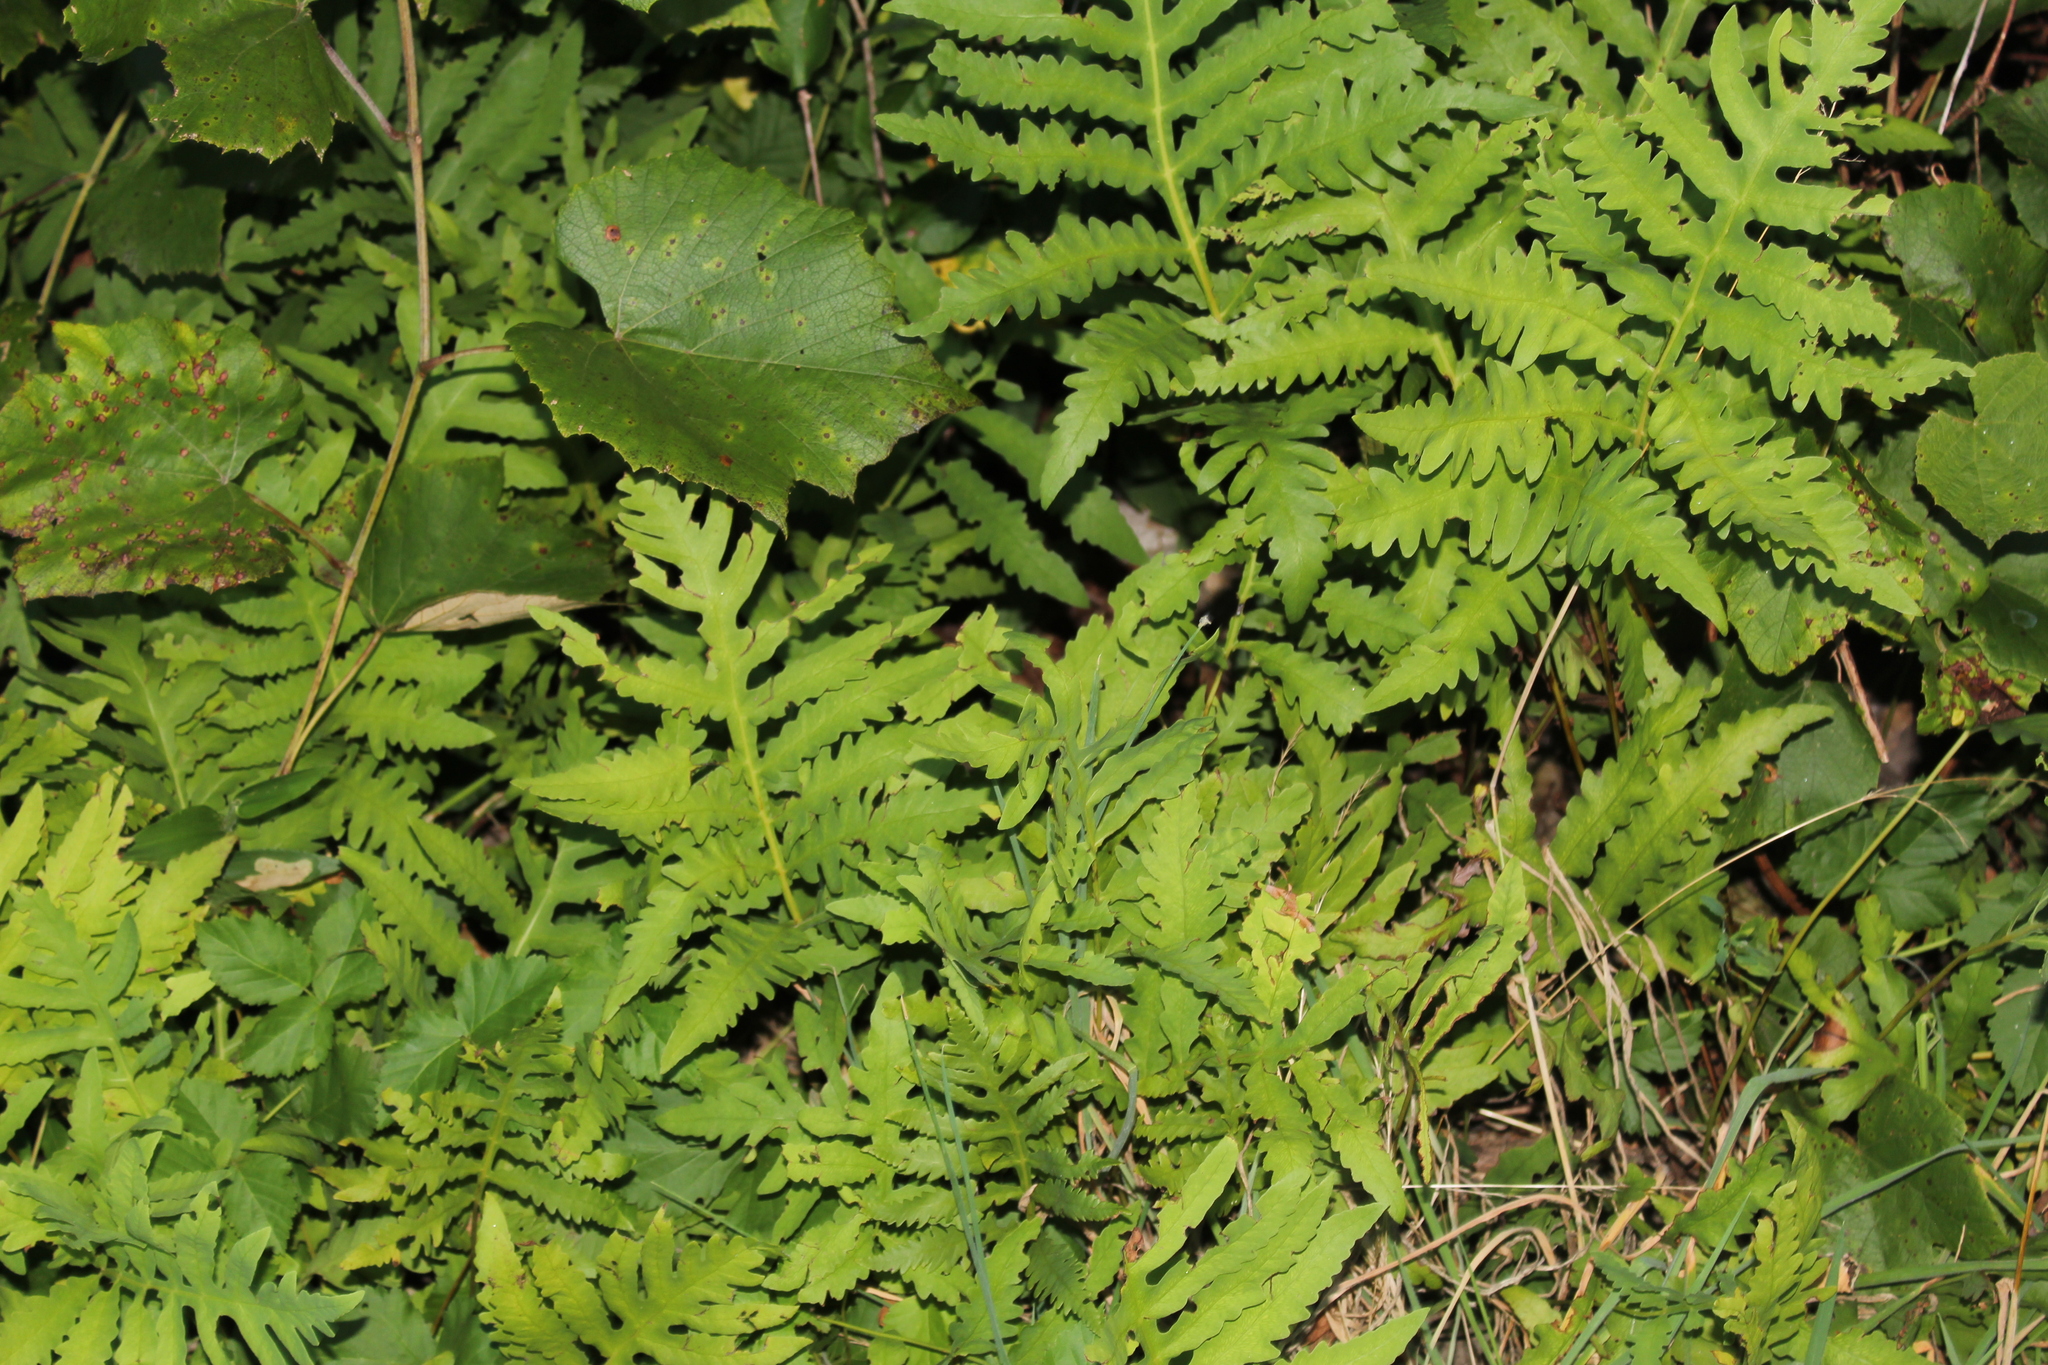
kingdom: Plantae
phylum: Tracheophyta
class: Polypodiopsida
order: Polypodiales
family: Onocleaceae
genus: Onoclea
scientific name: Onoclea sensibilis
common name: Sensitive fern
